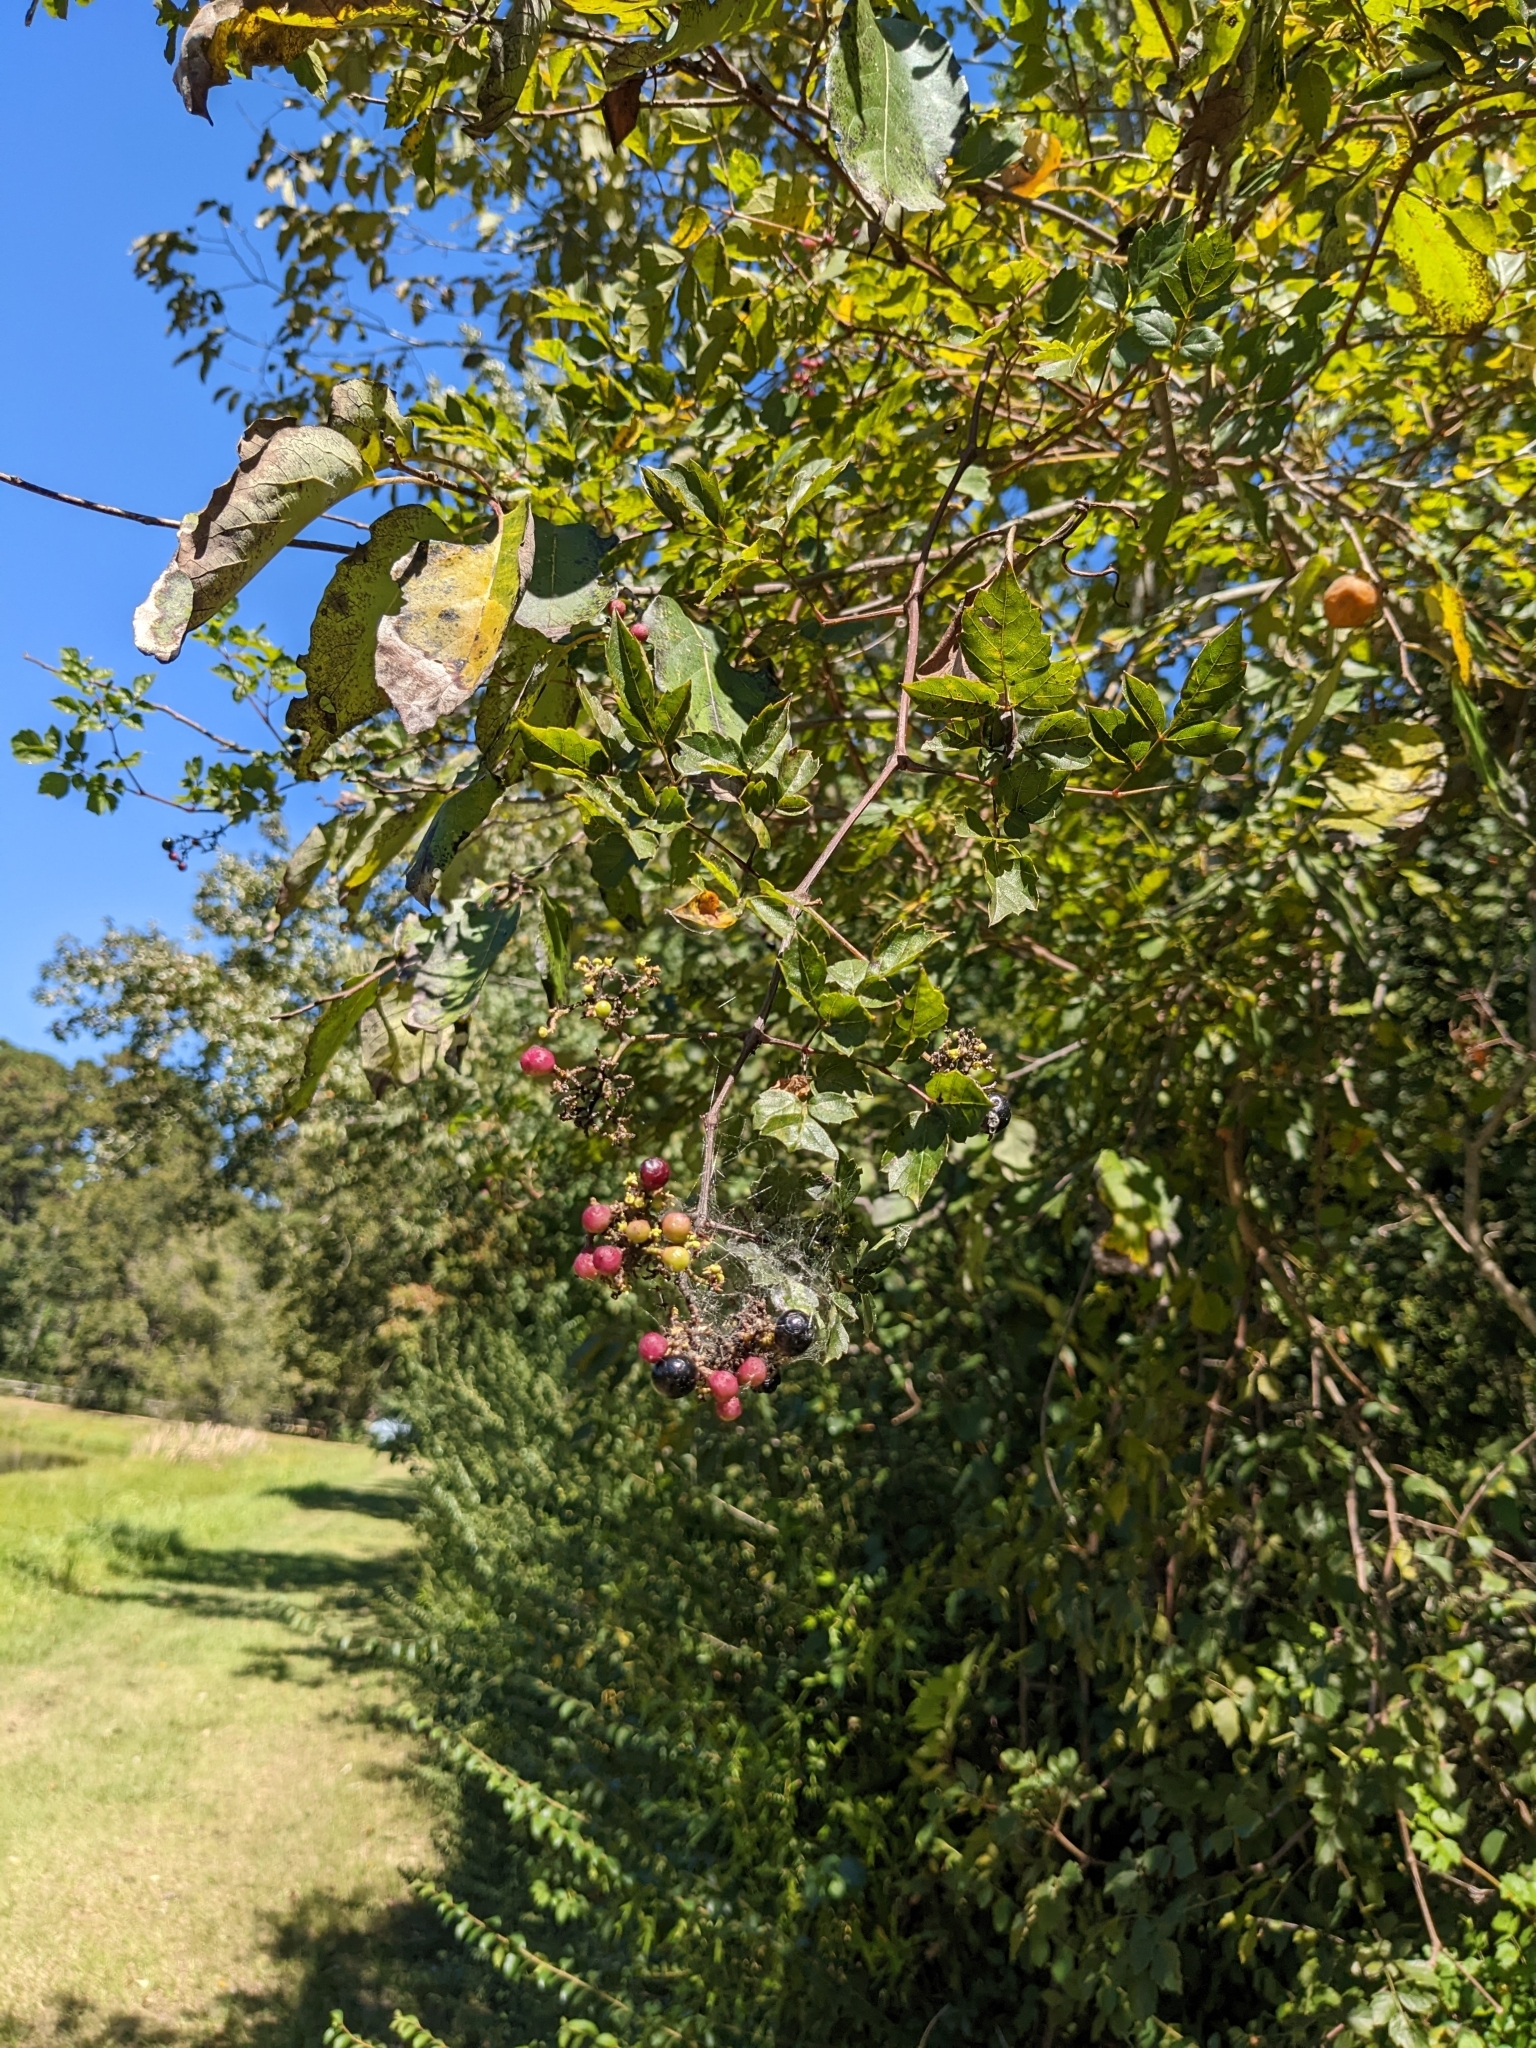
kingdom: Plantae
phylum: Tracheophyta
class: Magnoliopsida
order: Vitales
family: Vitaceae
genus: Nekemias
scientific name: Nekemias arborea
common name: Peppervine
